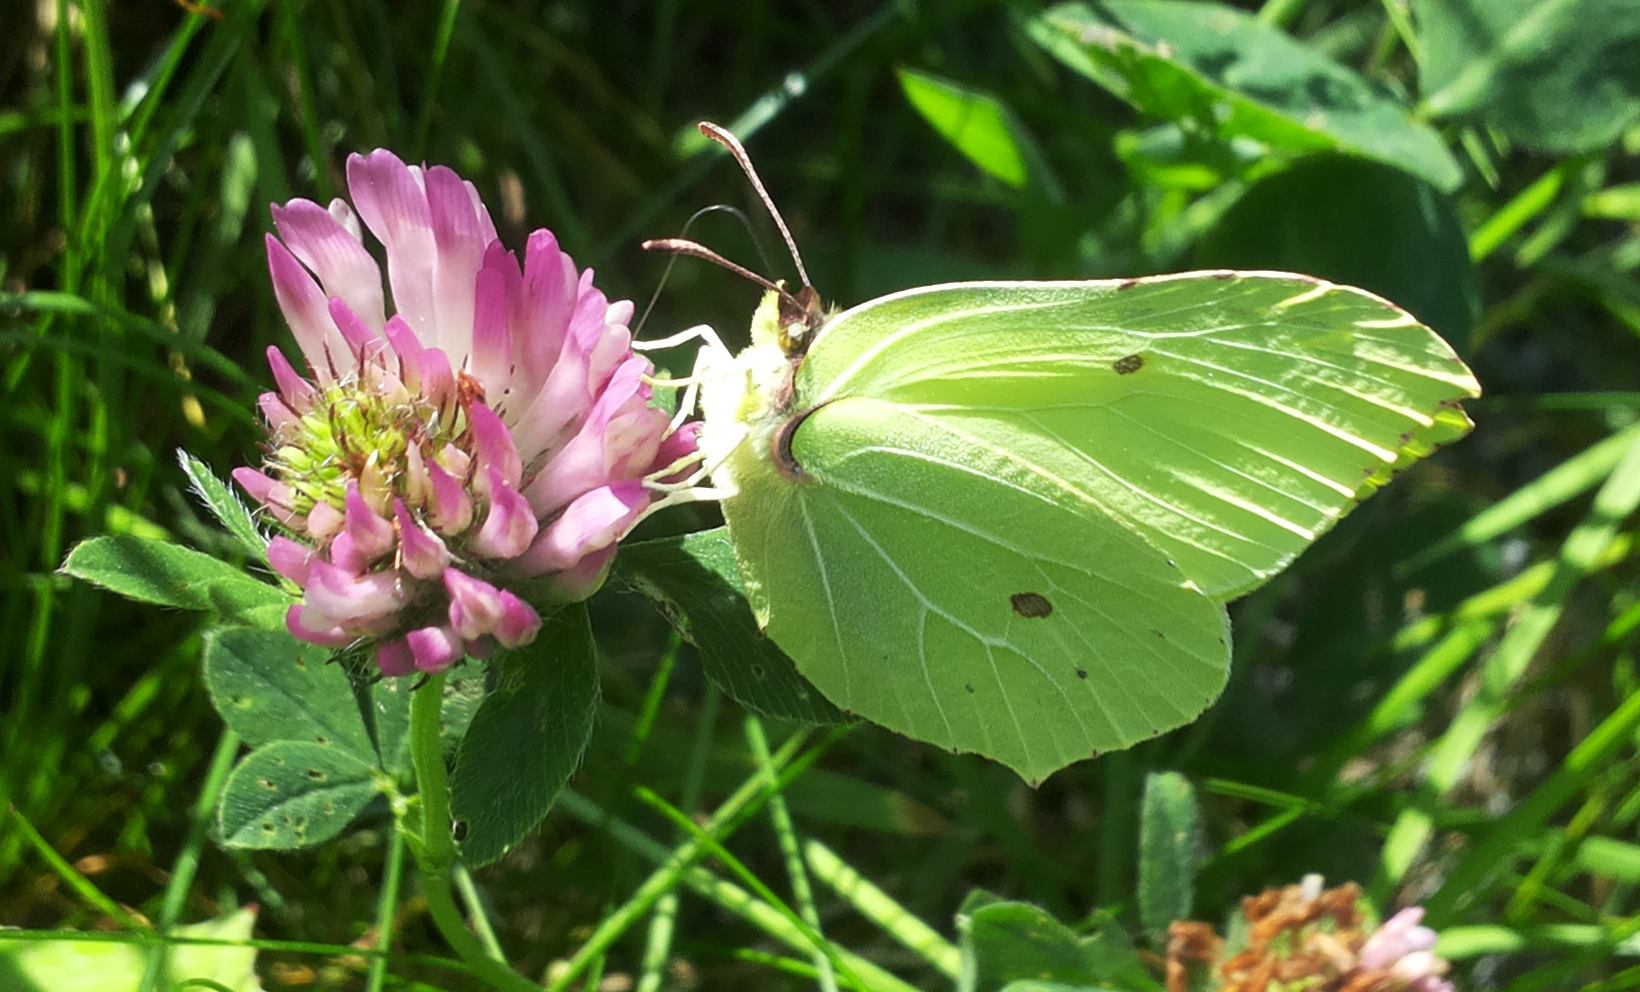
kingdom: Animalia
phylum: Arthropoda
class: Insecta
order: Lepidoptera
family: Pieridae
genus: Gonepteryx
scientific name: Gonepteryx rhamni
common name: Brimstone
